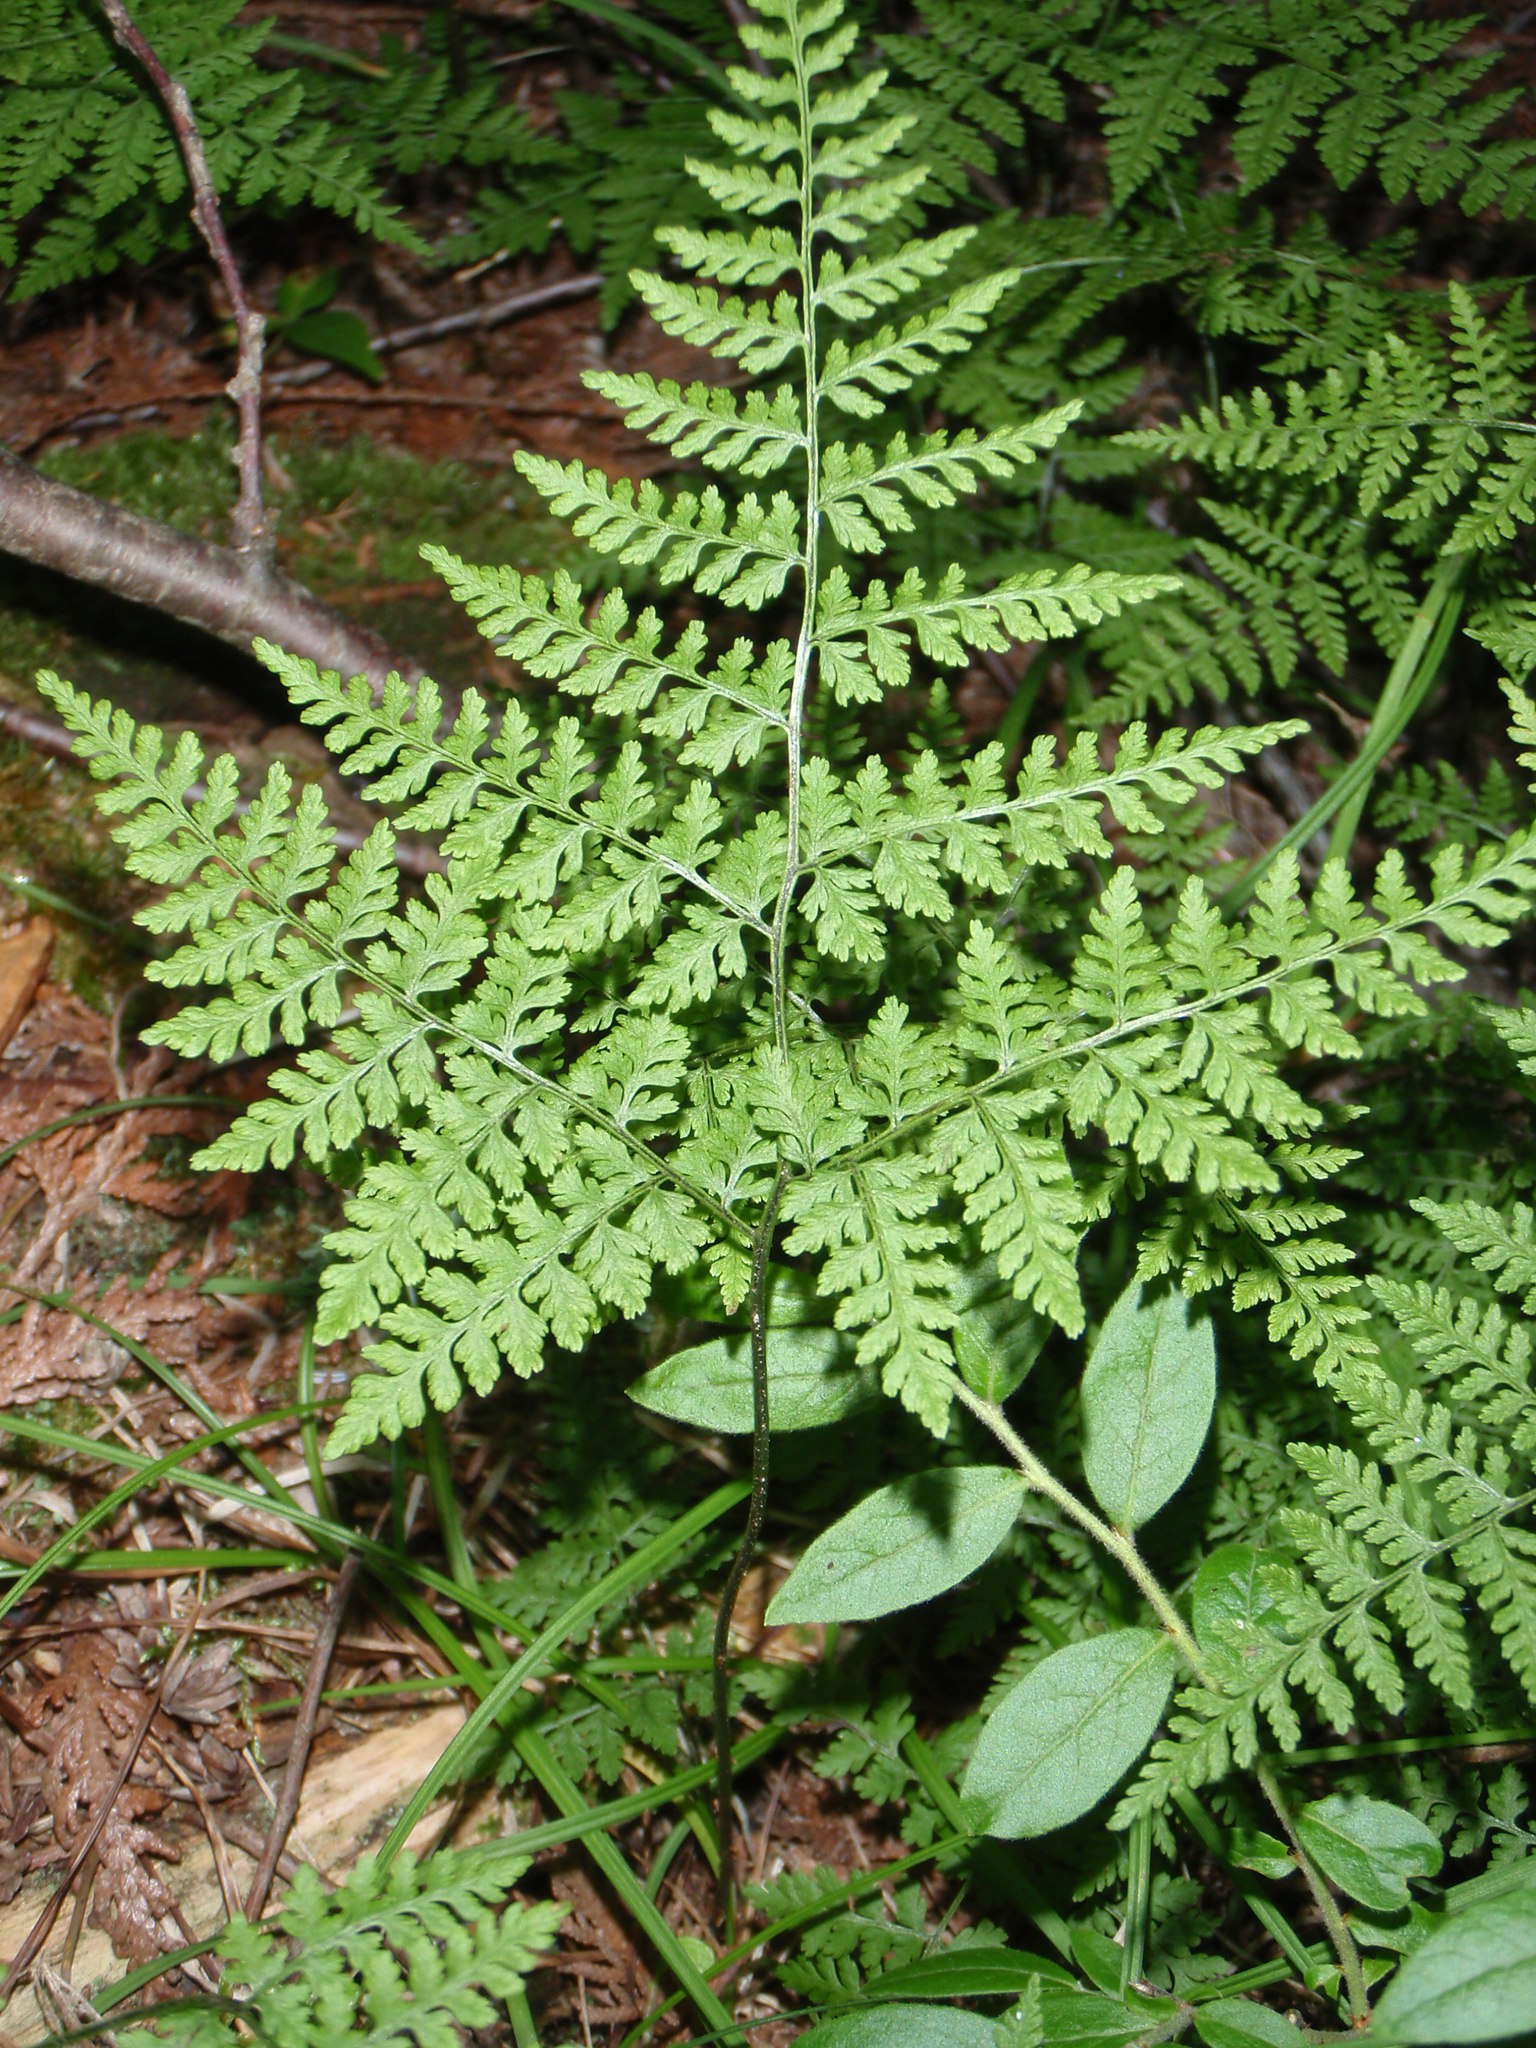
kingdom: Plantae
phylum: Tracheophyta
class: Polypodiopsida
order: Polypodiales
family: Cystopteridaceae
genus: Cystopteris
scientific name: Cystopteris montana
